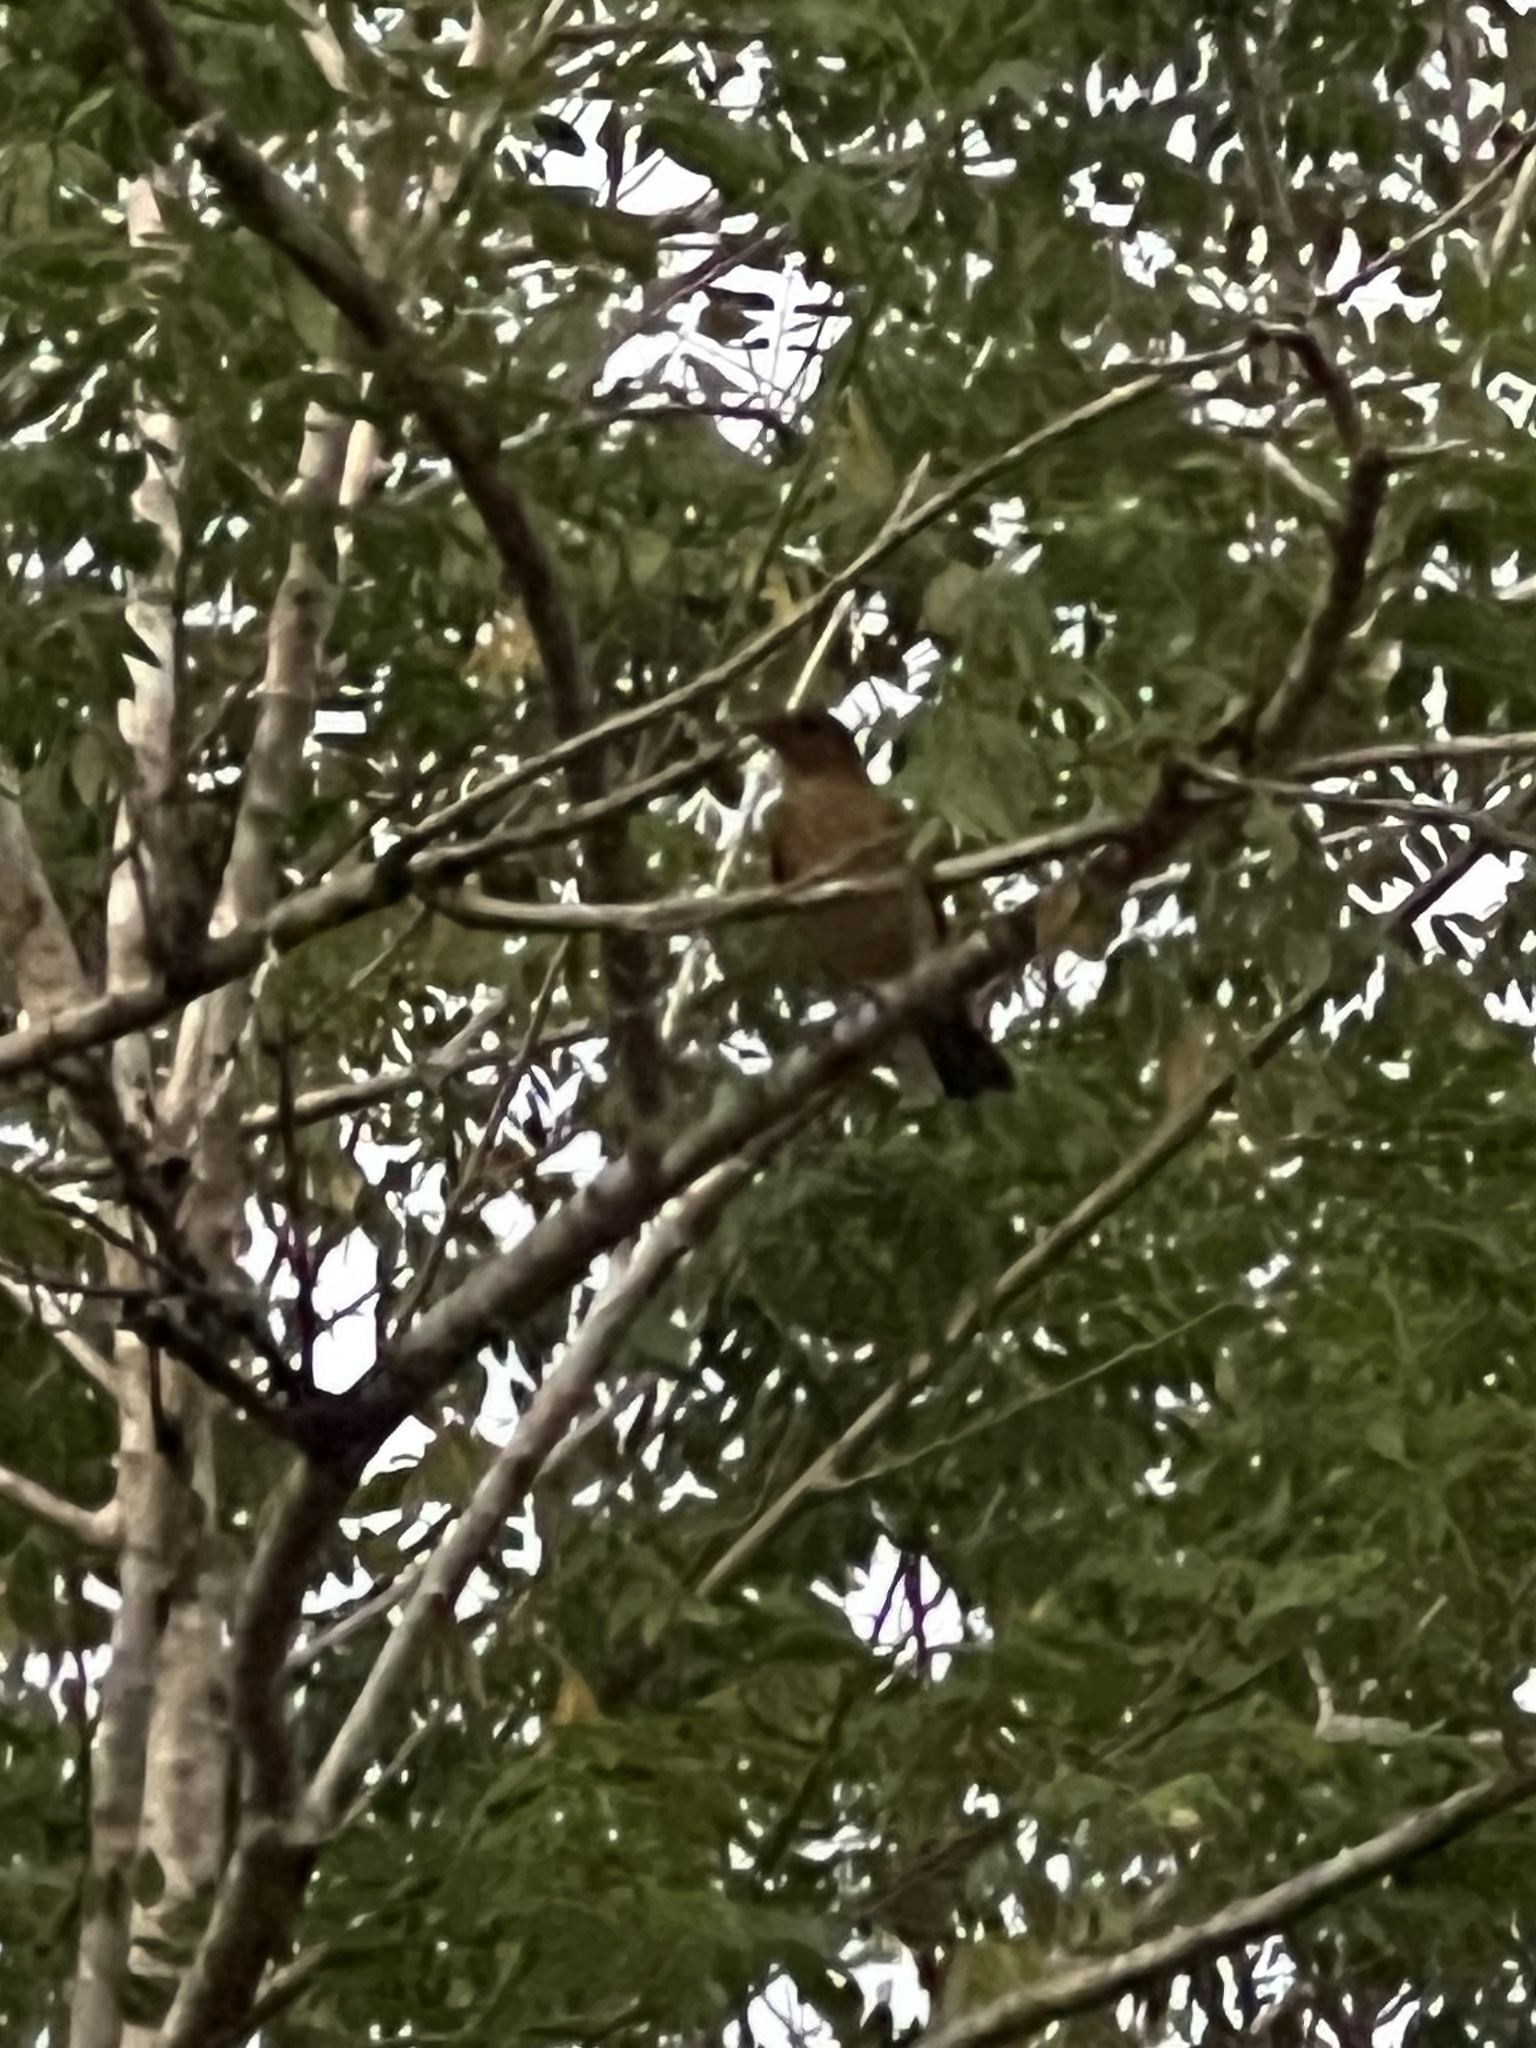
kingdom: Animalia
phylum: Chordata
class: Aves
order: Passeriformes
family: Turdidae
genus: Turdus
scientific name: Turdus grayi
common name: Clay-colored thrush
